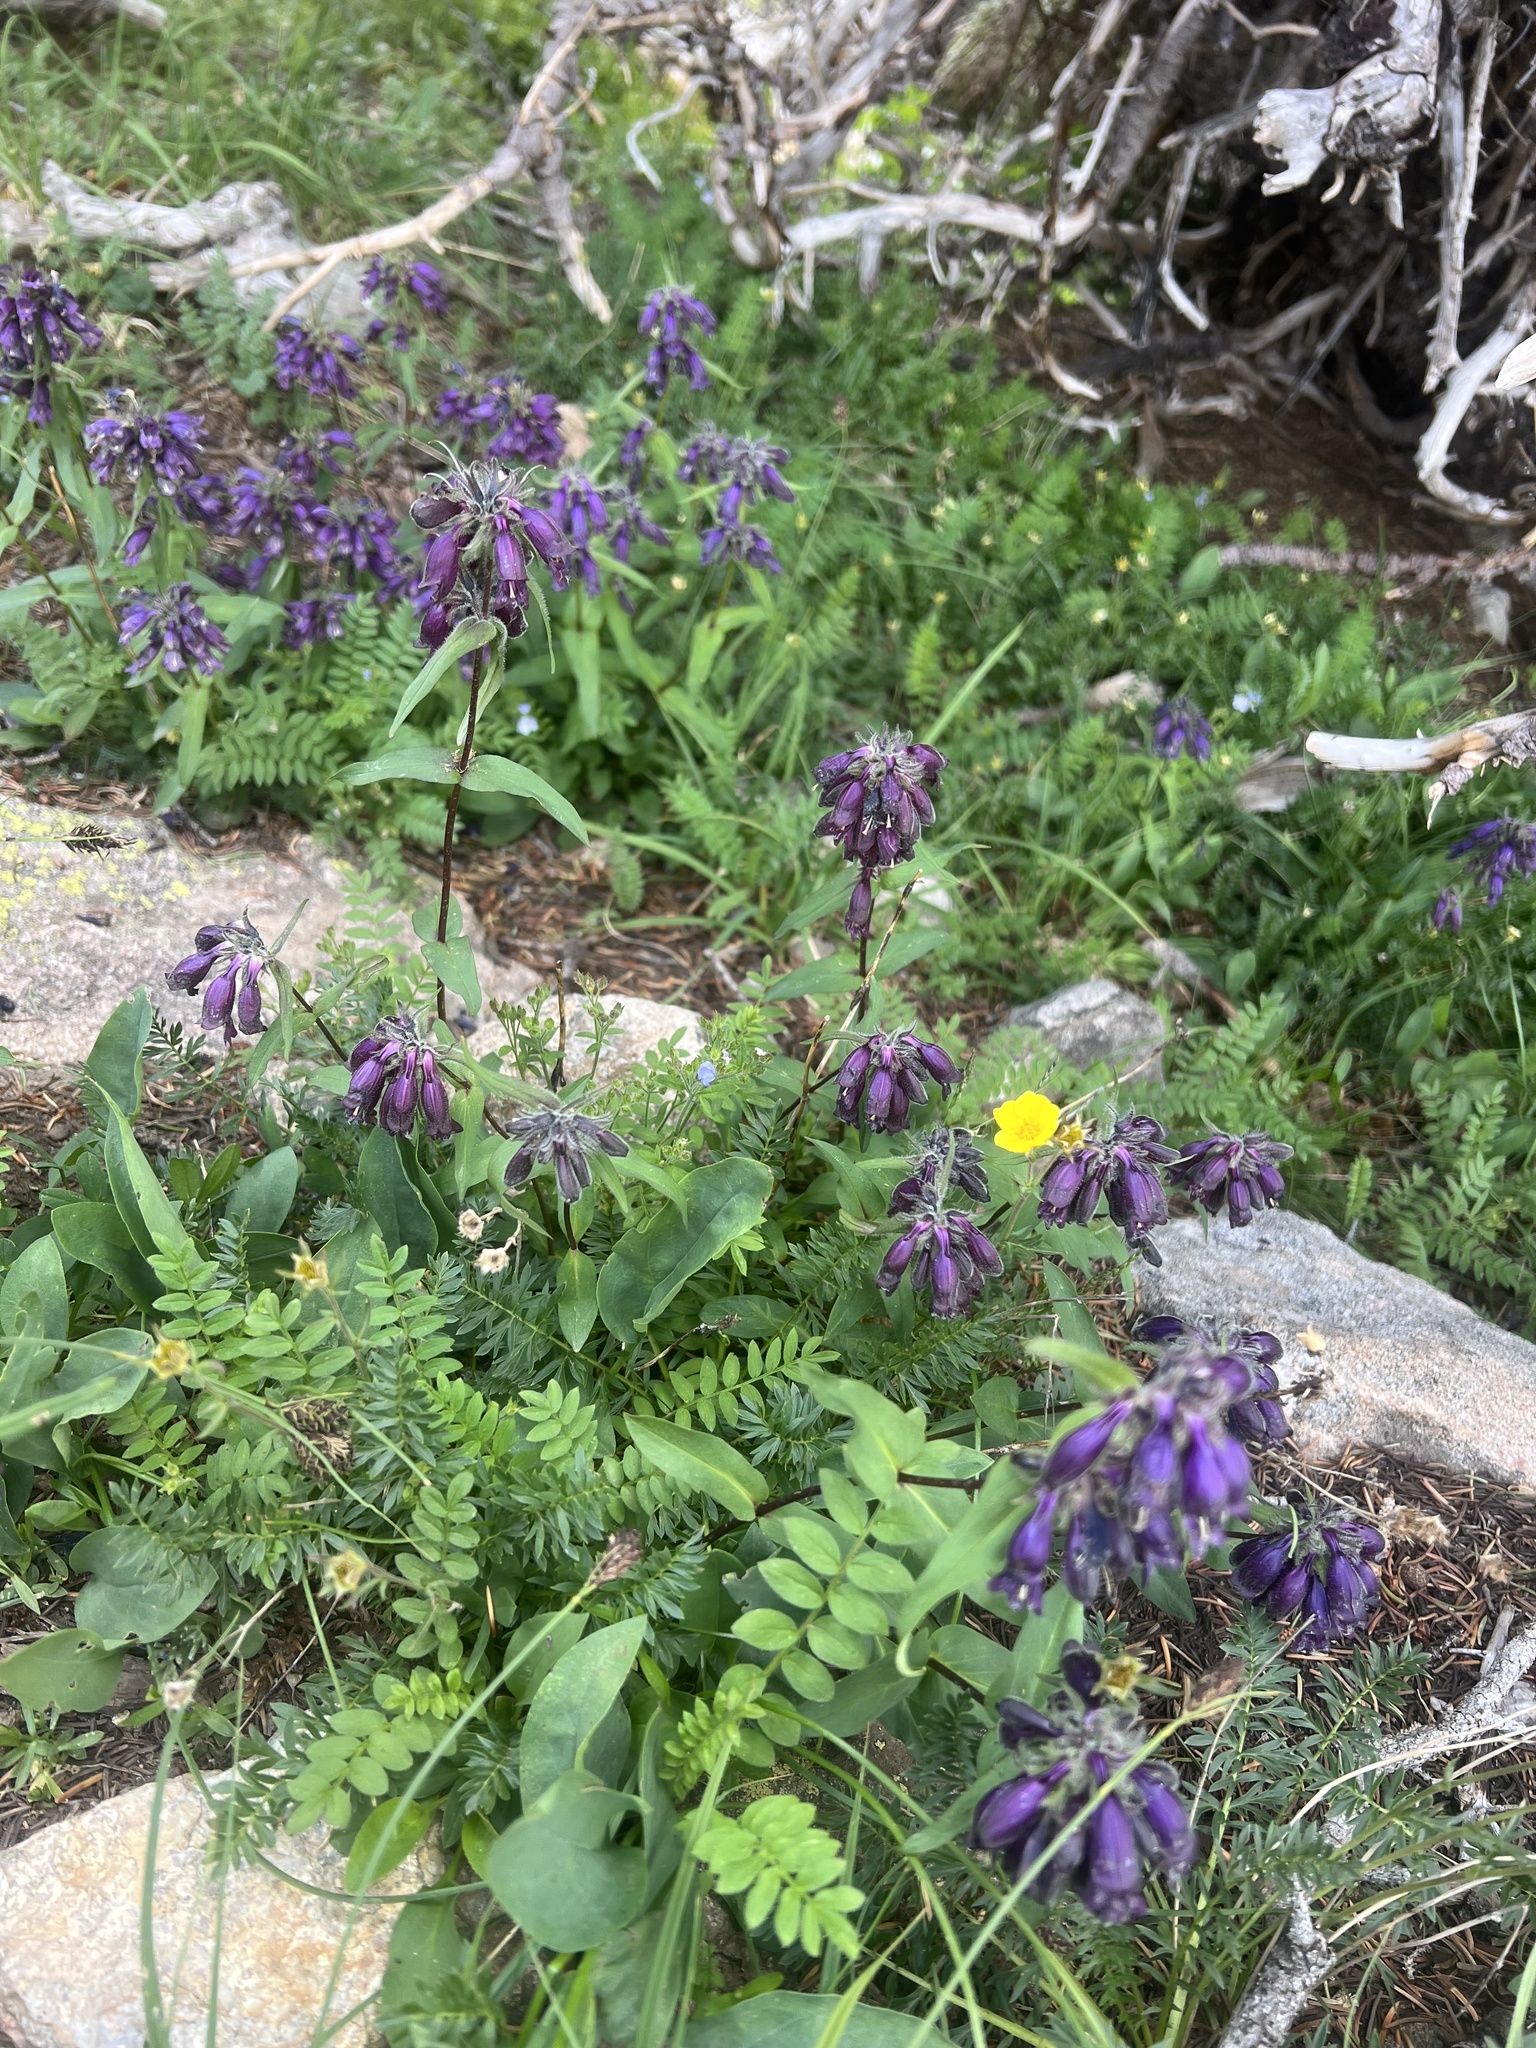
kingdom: Plantae
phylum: Tracheophyta
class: Magnoliopsida
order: Lamiales
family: Plantaginaceae
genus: Penstemon
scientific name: Penstemon whippleanus
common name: Whipple's penstemon
